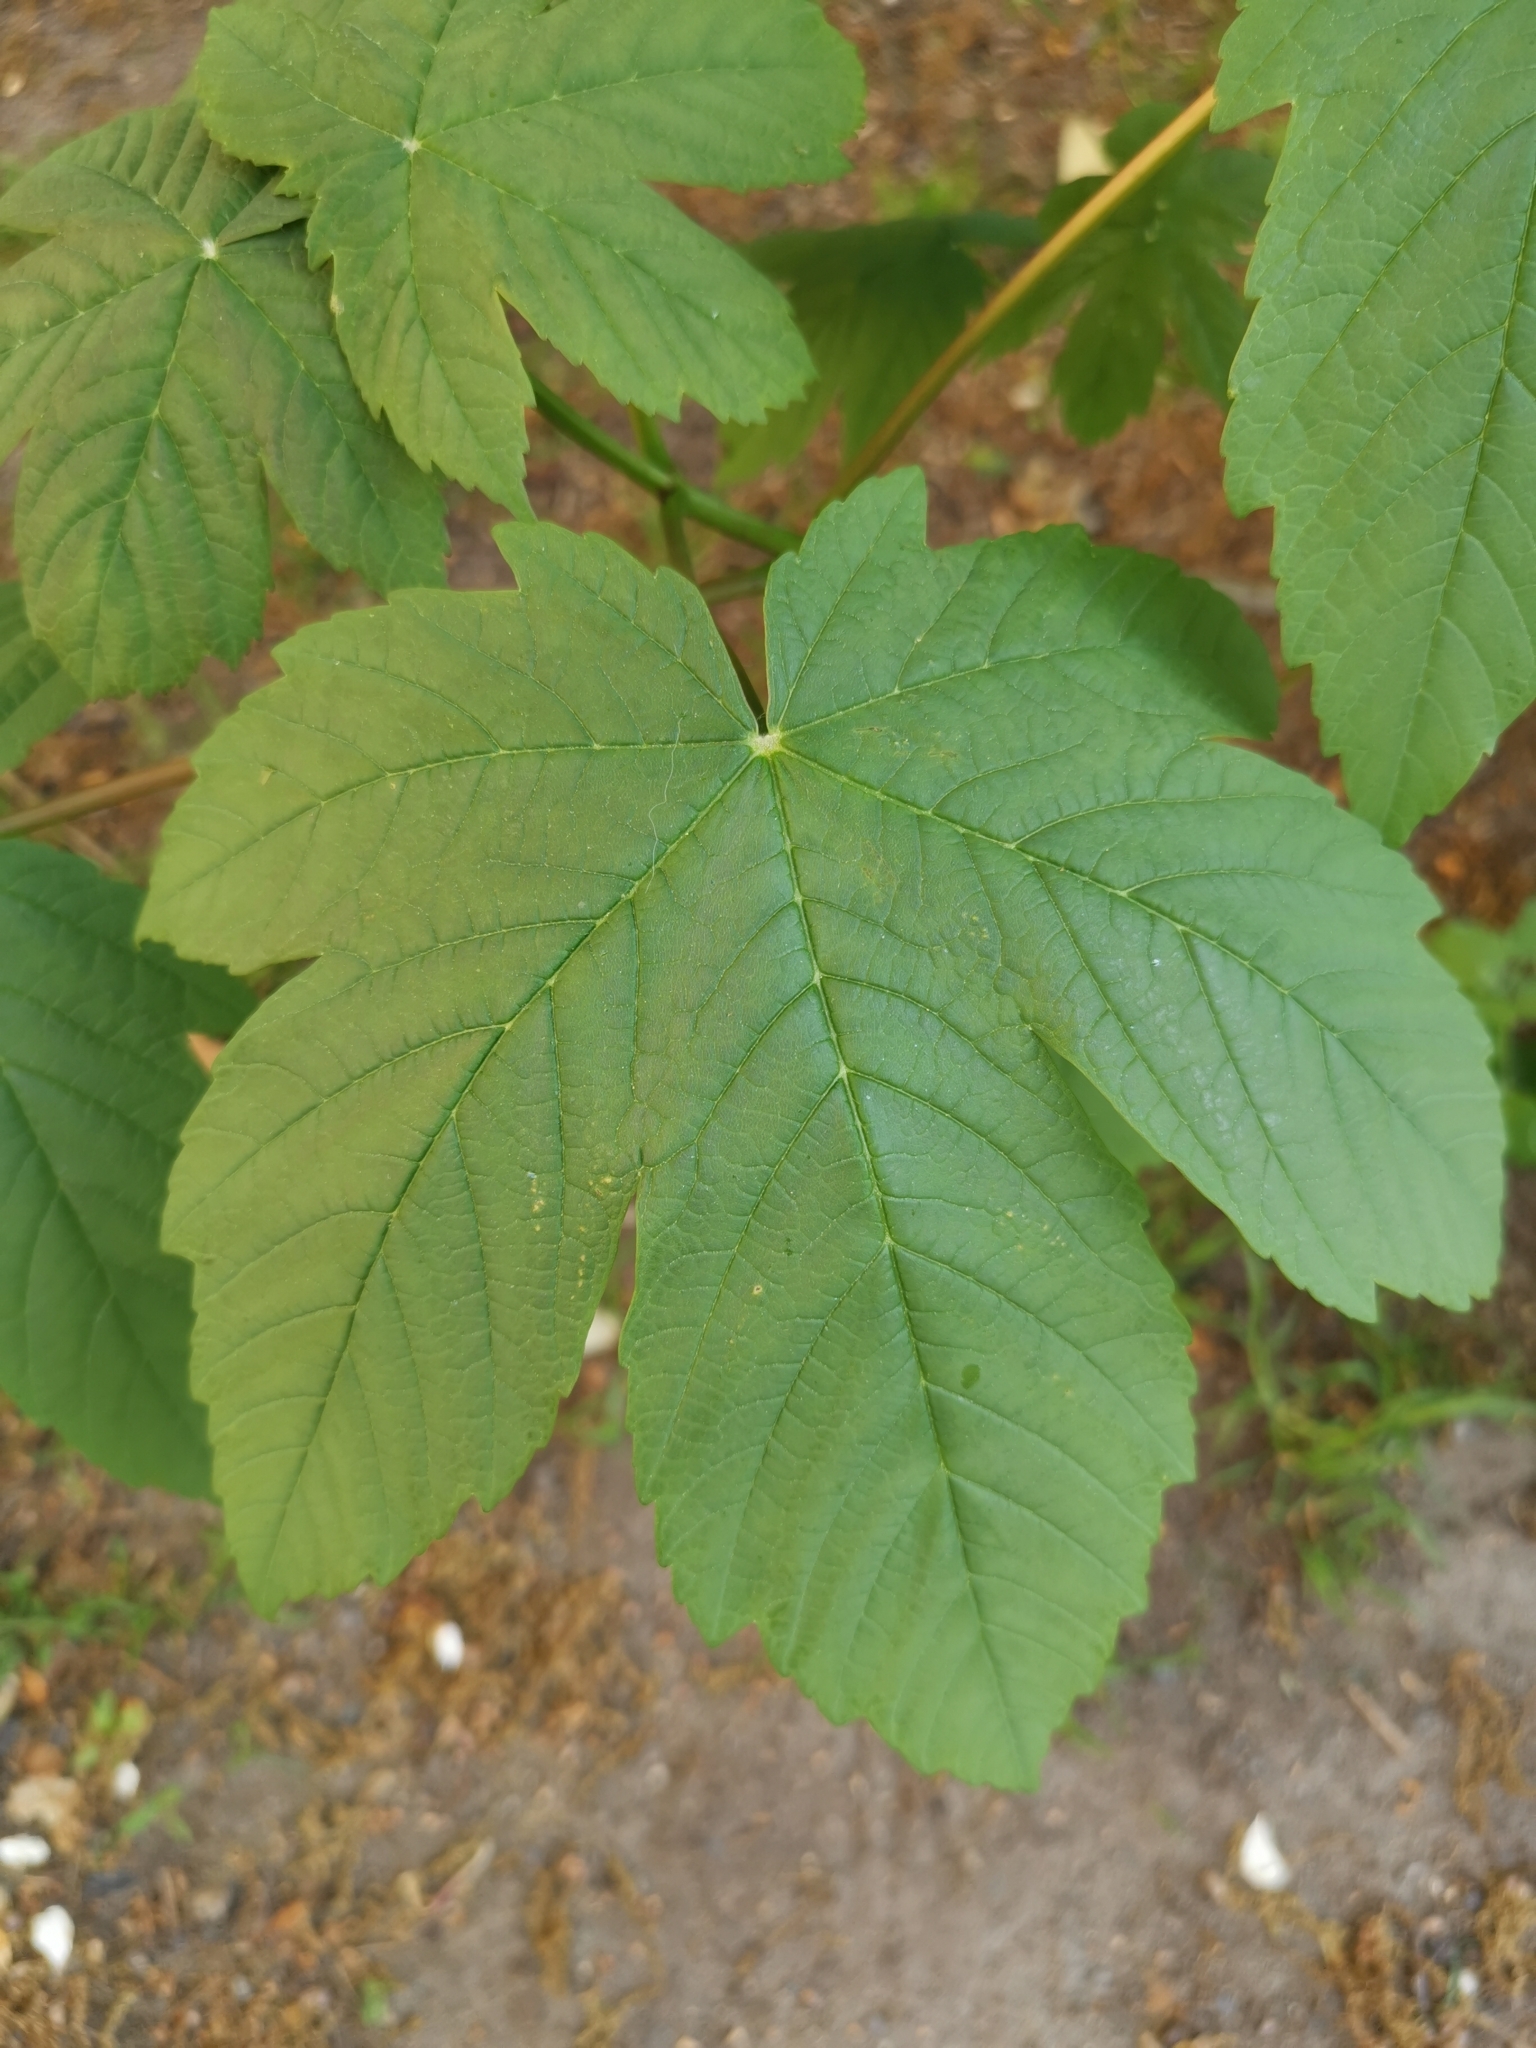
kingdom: Plantae
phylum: Tracheophyta
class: Magnoliopsida
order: Sapindales
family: Sapindaceae
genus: Acer
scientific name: Acer pseudoplatanus
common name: Sycamore
